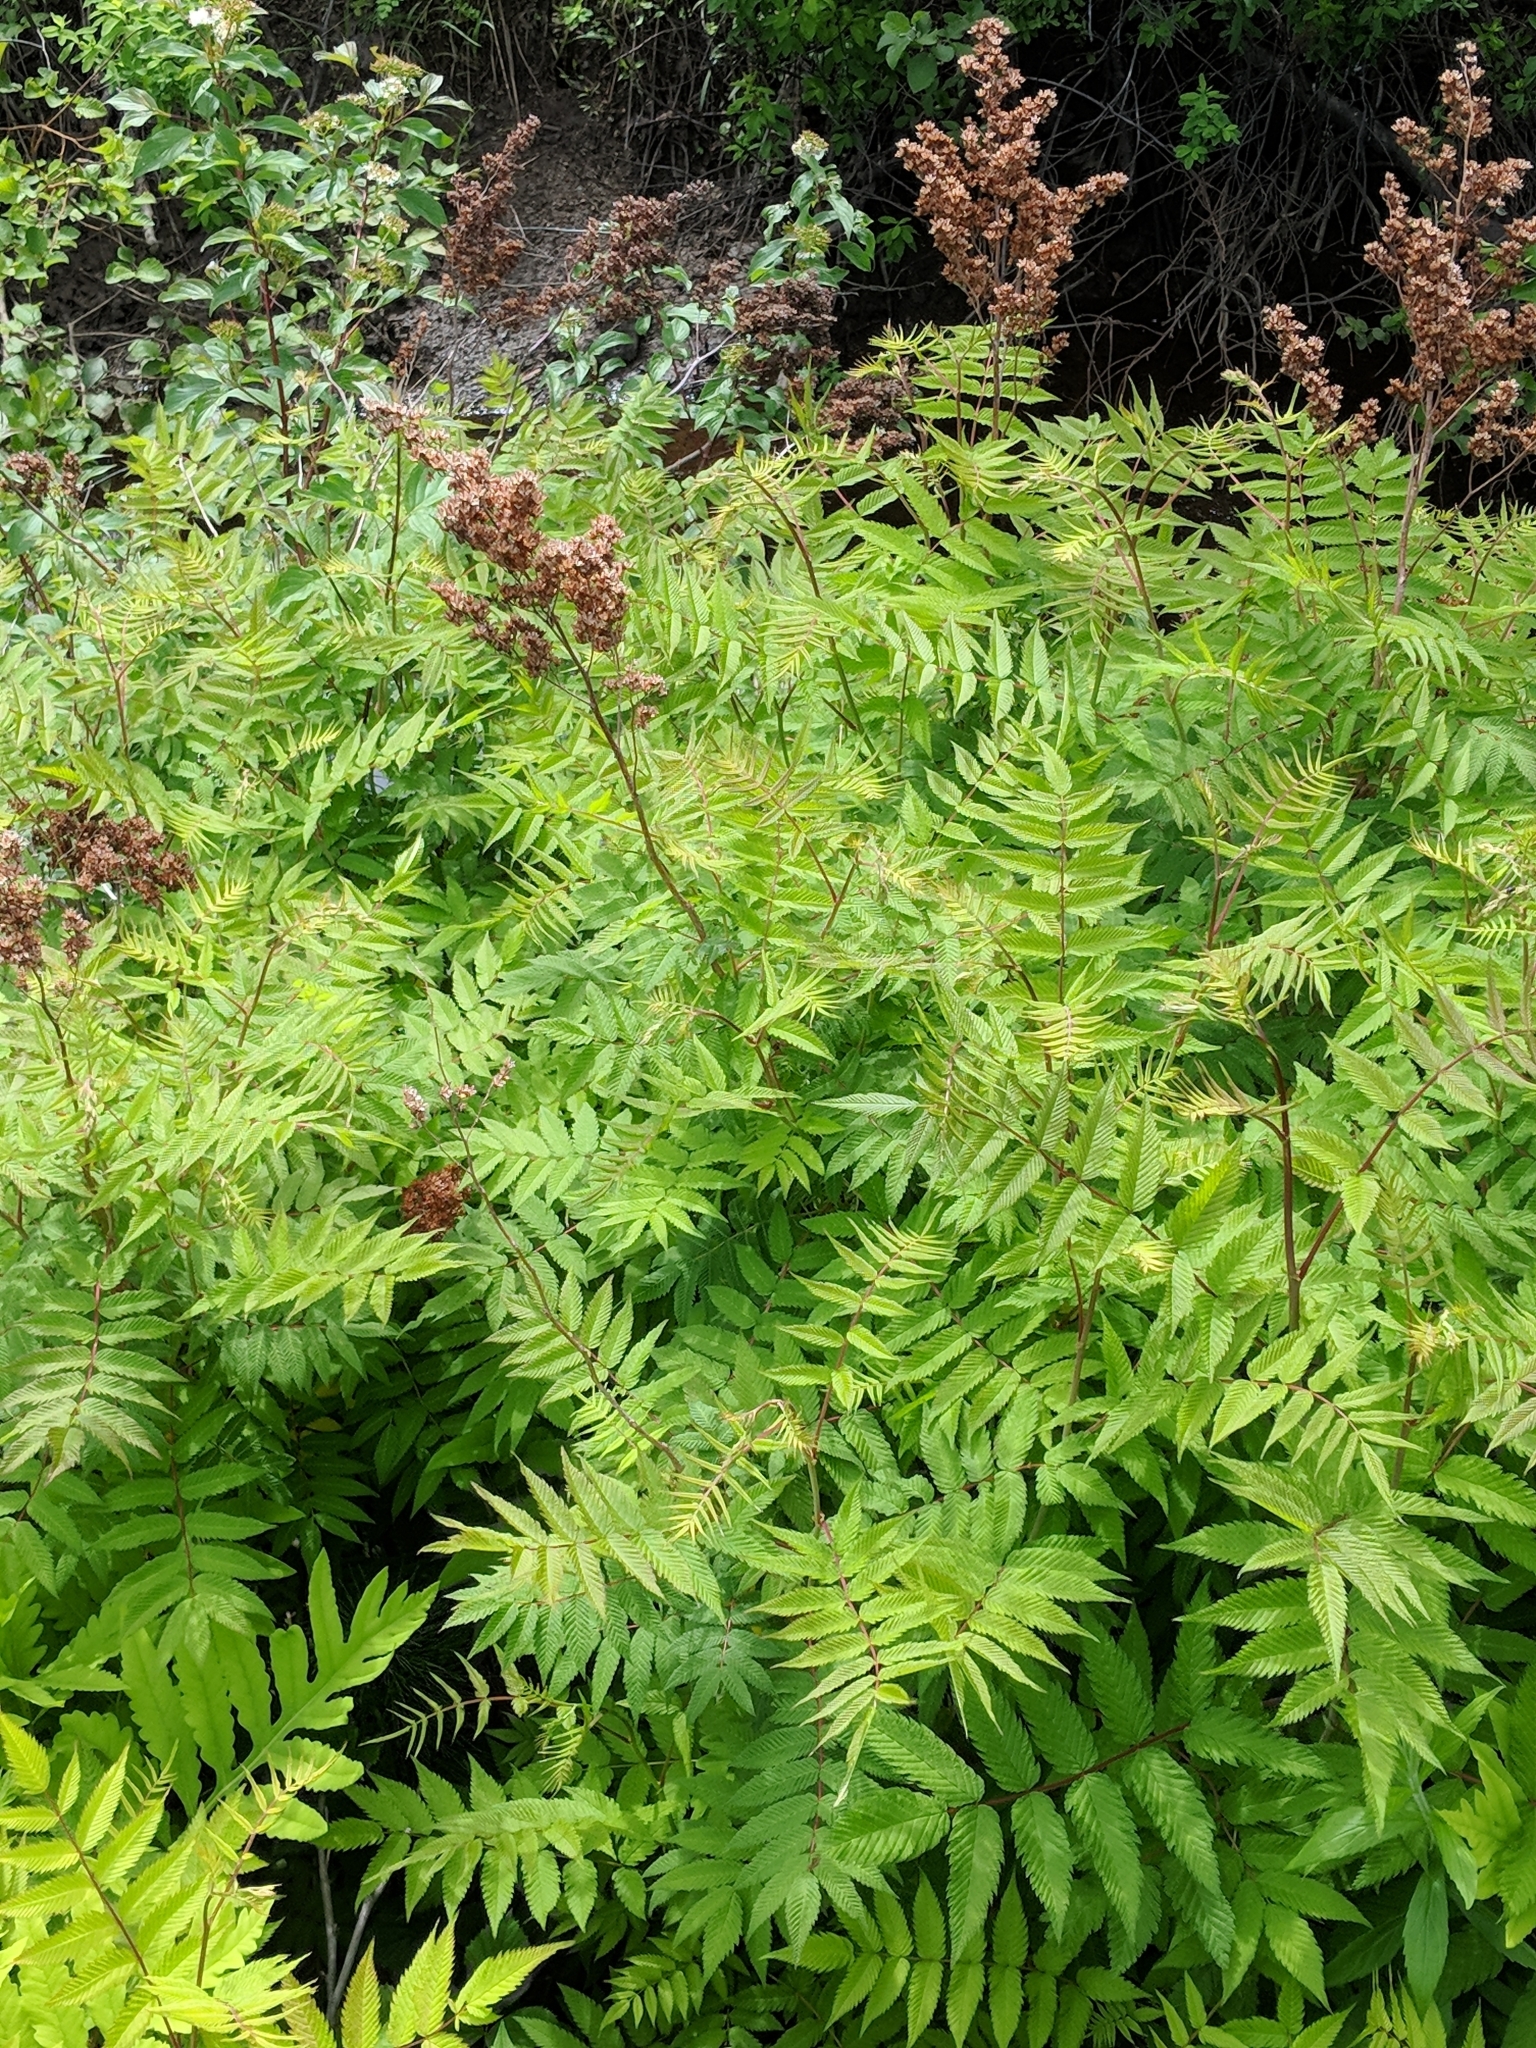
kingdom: Plantae
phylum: Tracheophyta
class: Magnoliopsida
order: Rosales
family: Rosaceae
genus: Sorbaria
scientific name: Sorbaria sorbifolia
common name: False spiraea
